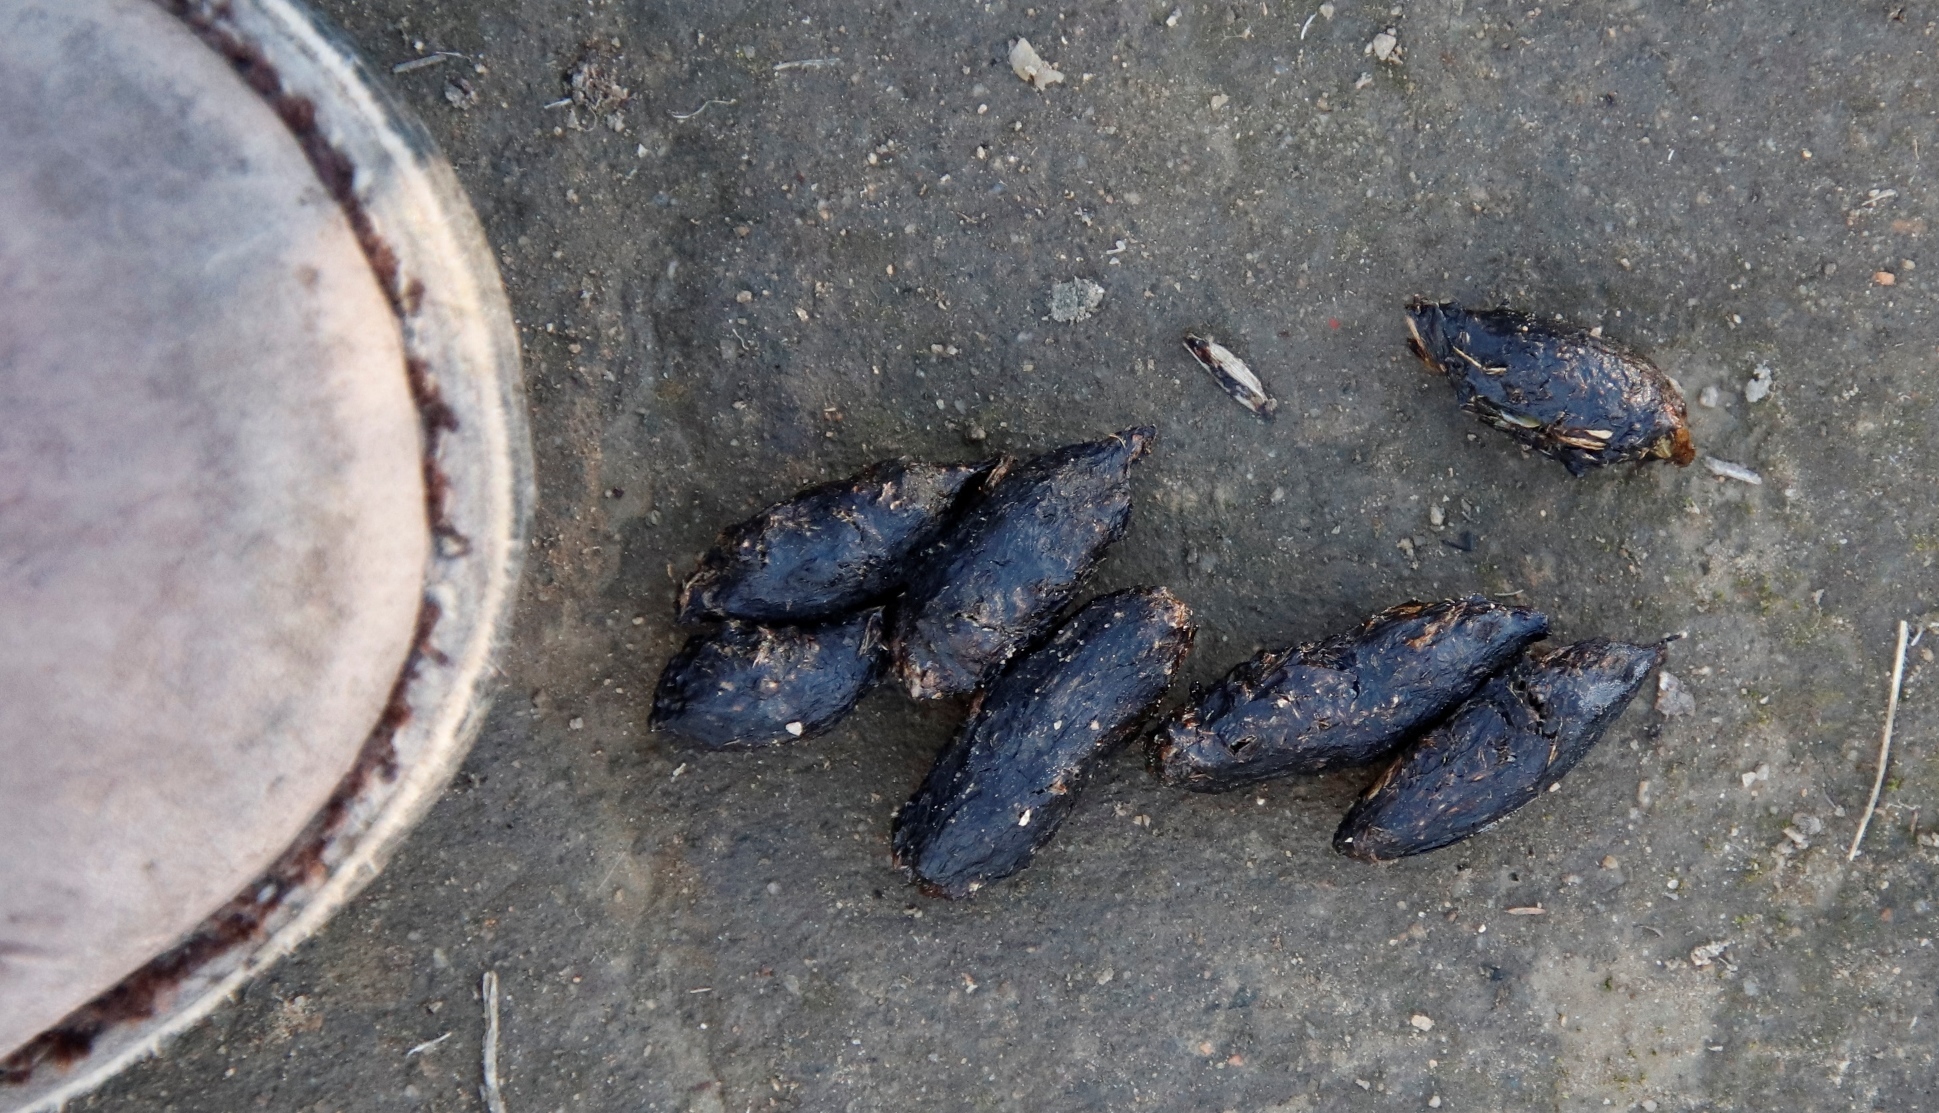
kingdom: Animalia
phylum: Chordata
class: Mammalia
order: Rodentia
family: Hystricidae
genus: Hystrix
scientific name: Hystrix africaeaustralis
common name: Cape porcupine
